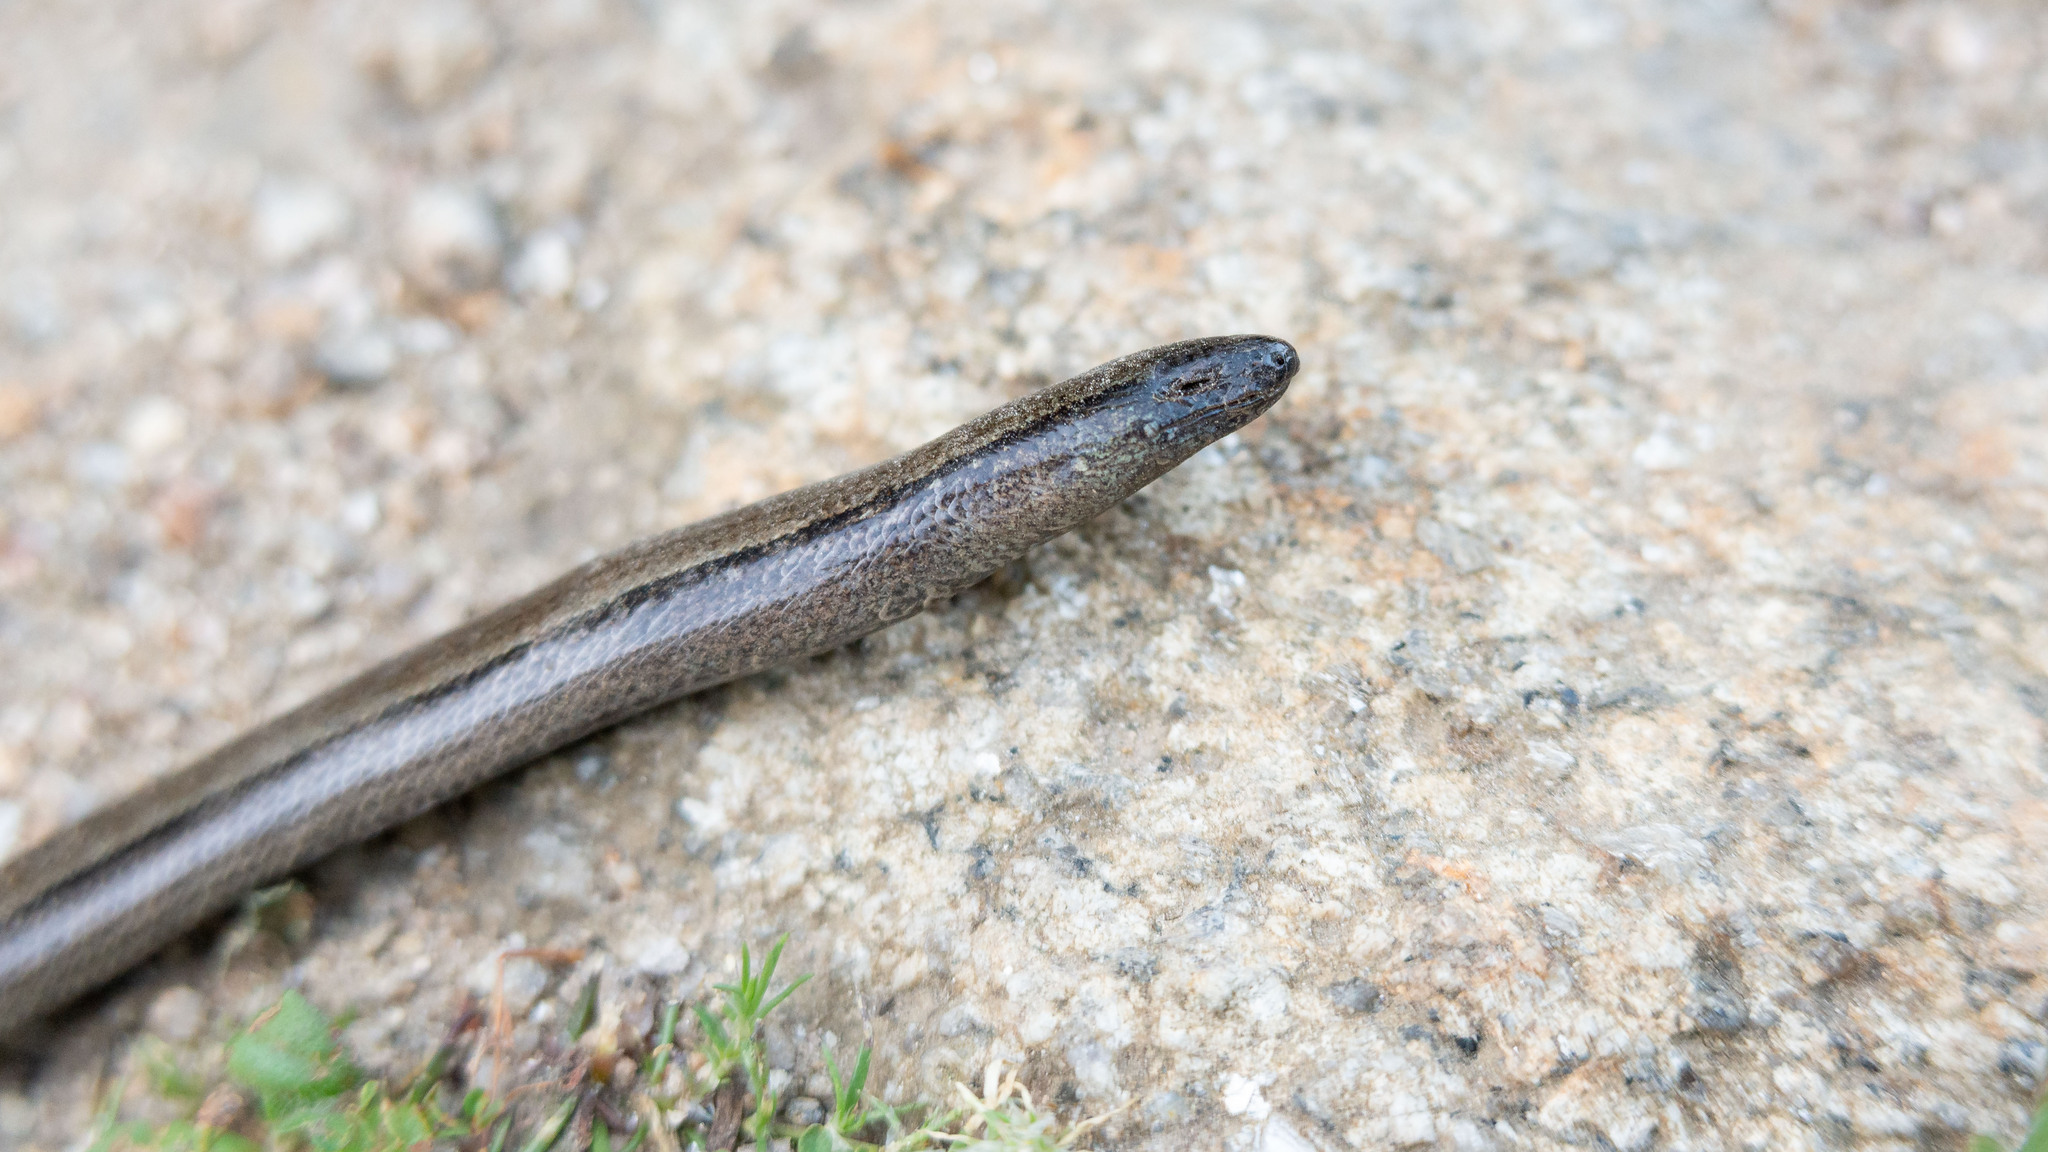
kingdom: Animalia
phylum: Chordata
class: Squamata
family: Anguidae
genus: Anguis
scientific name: Anguis fragilis
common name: Slow worm
